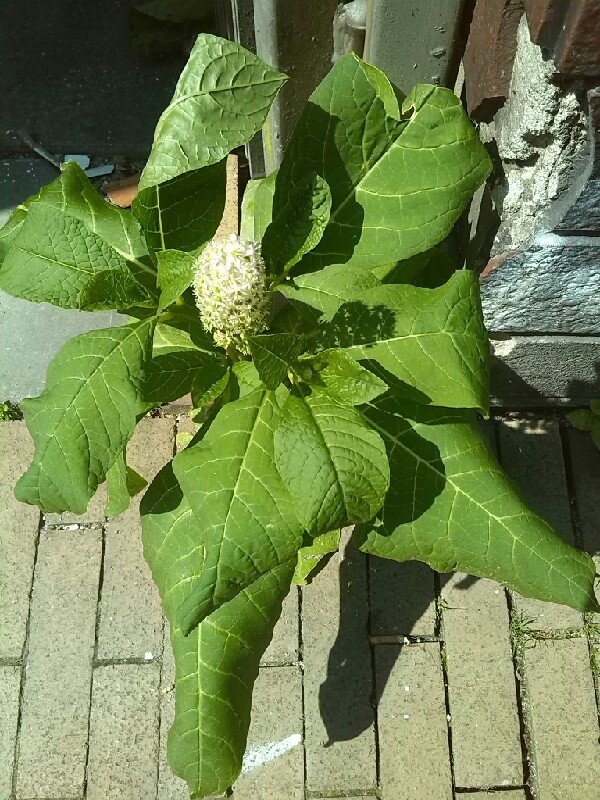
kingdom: Plantae
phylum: Tracheophyta
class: Magnoliopsida
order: Caryophyllales
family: Phytolaccaceae
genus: Phytolacca
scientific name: Phytolacca acinosa
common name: Indian pokeweed
